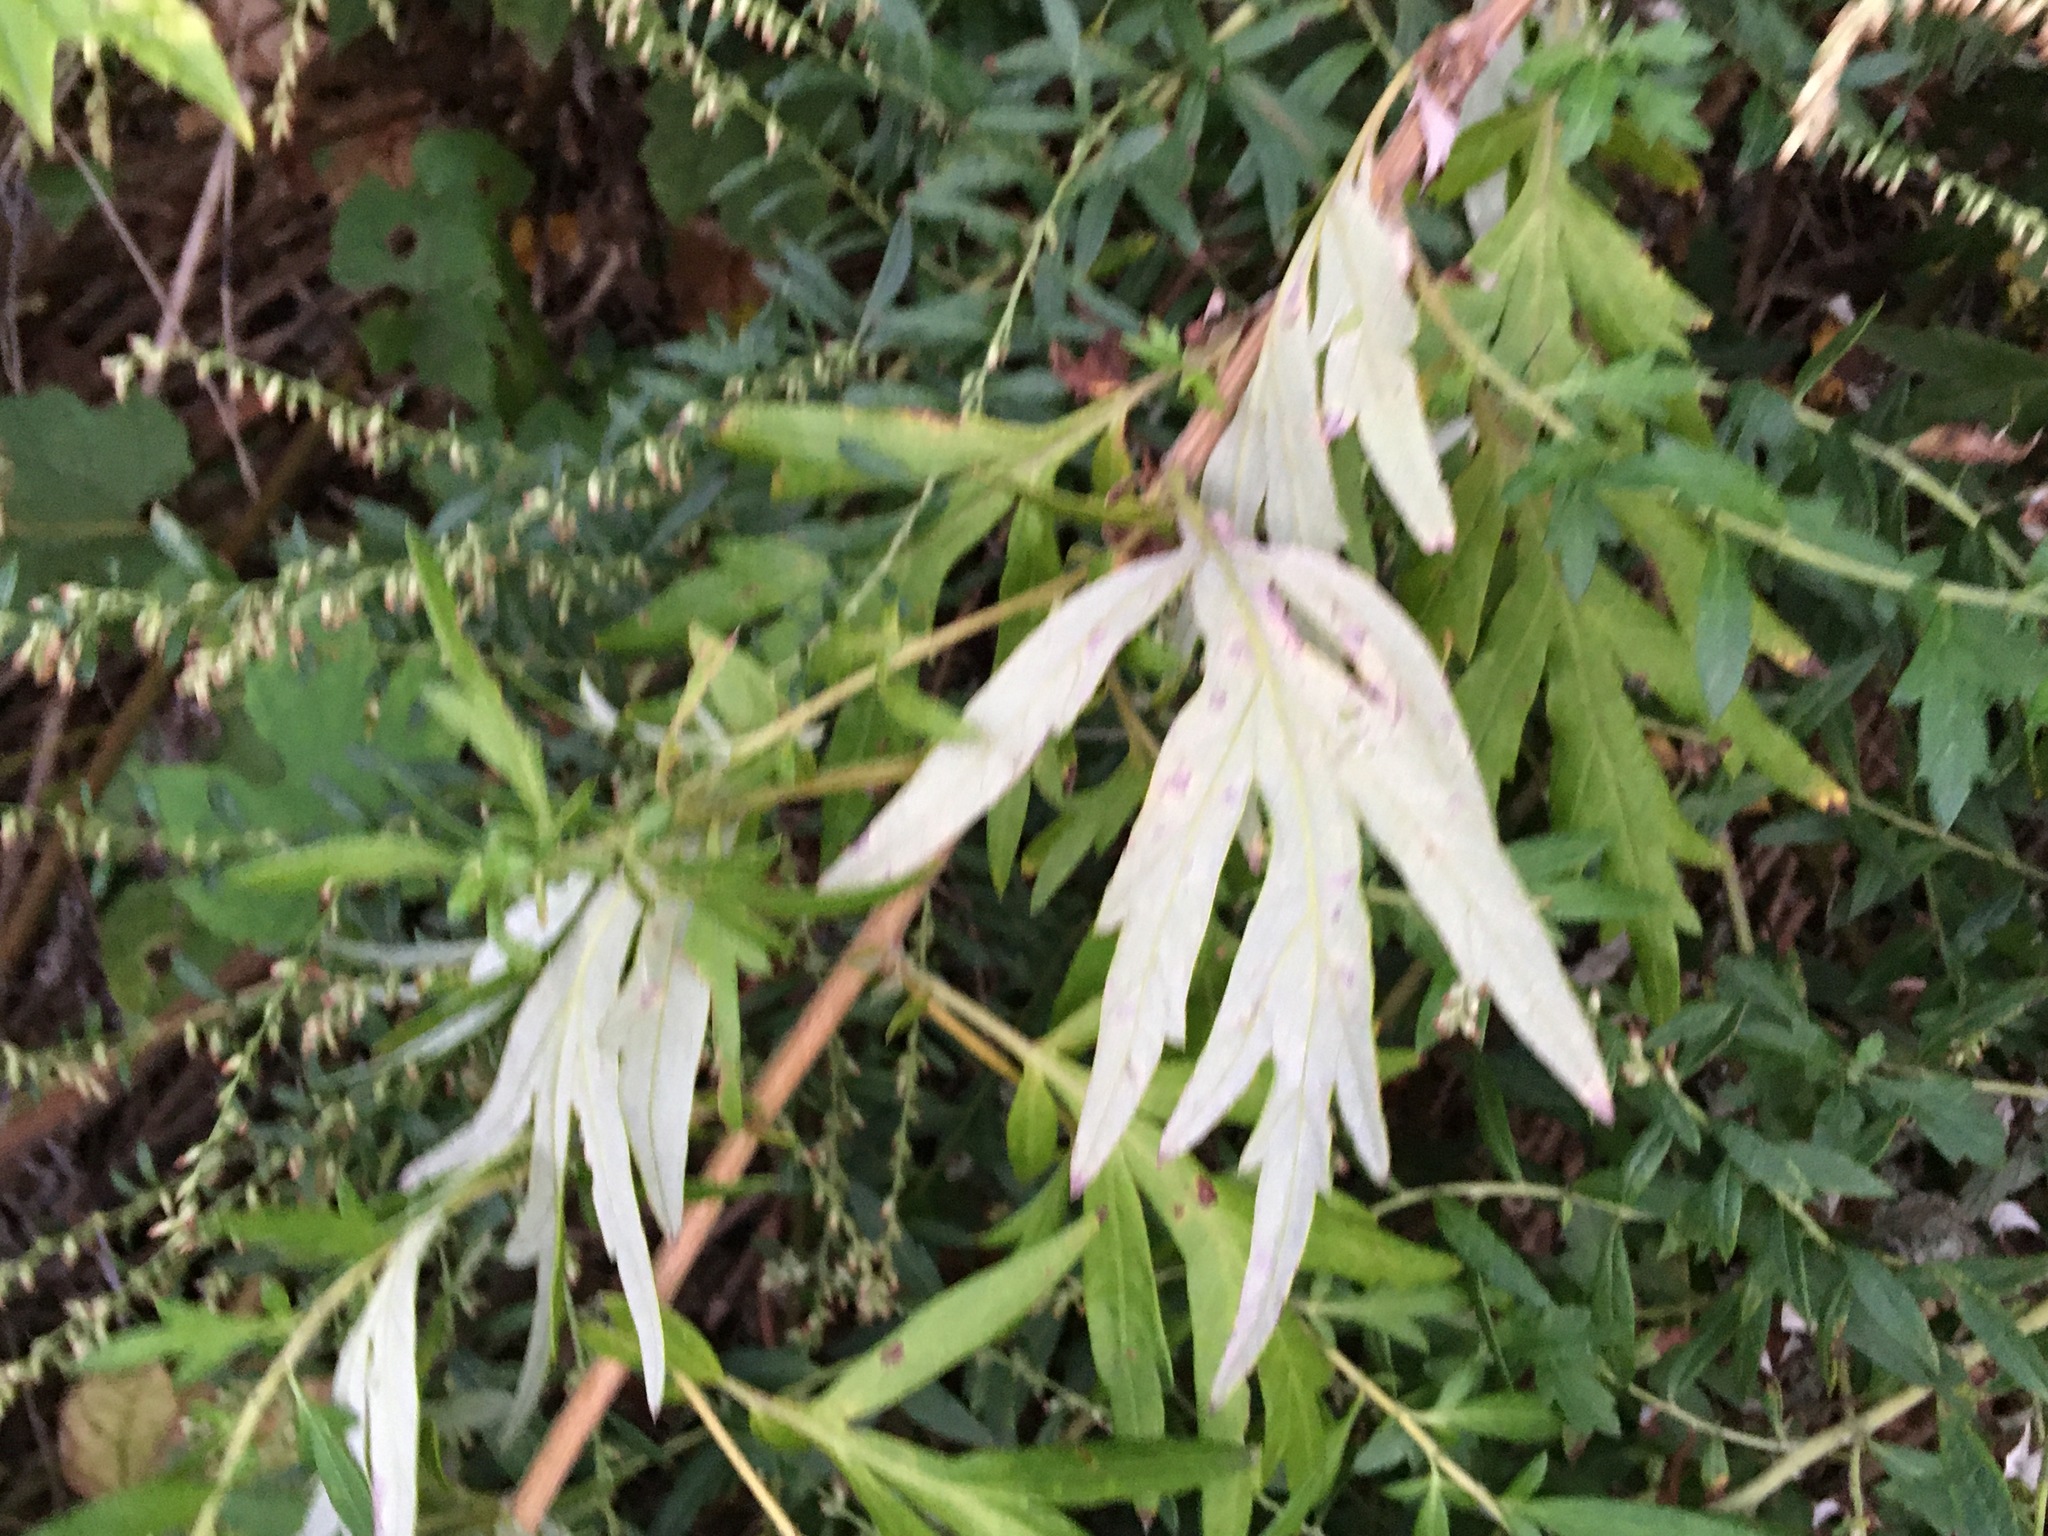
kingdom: Plantae
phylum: Tracheophyta
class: Magnoliopsida
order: Asterales
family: Asteraceae
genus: Artemisia
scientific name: Artemisia vulgaris
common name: Mugwort
